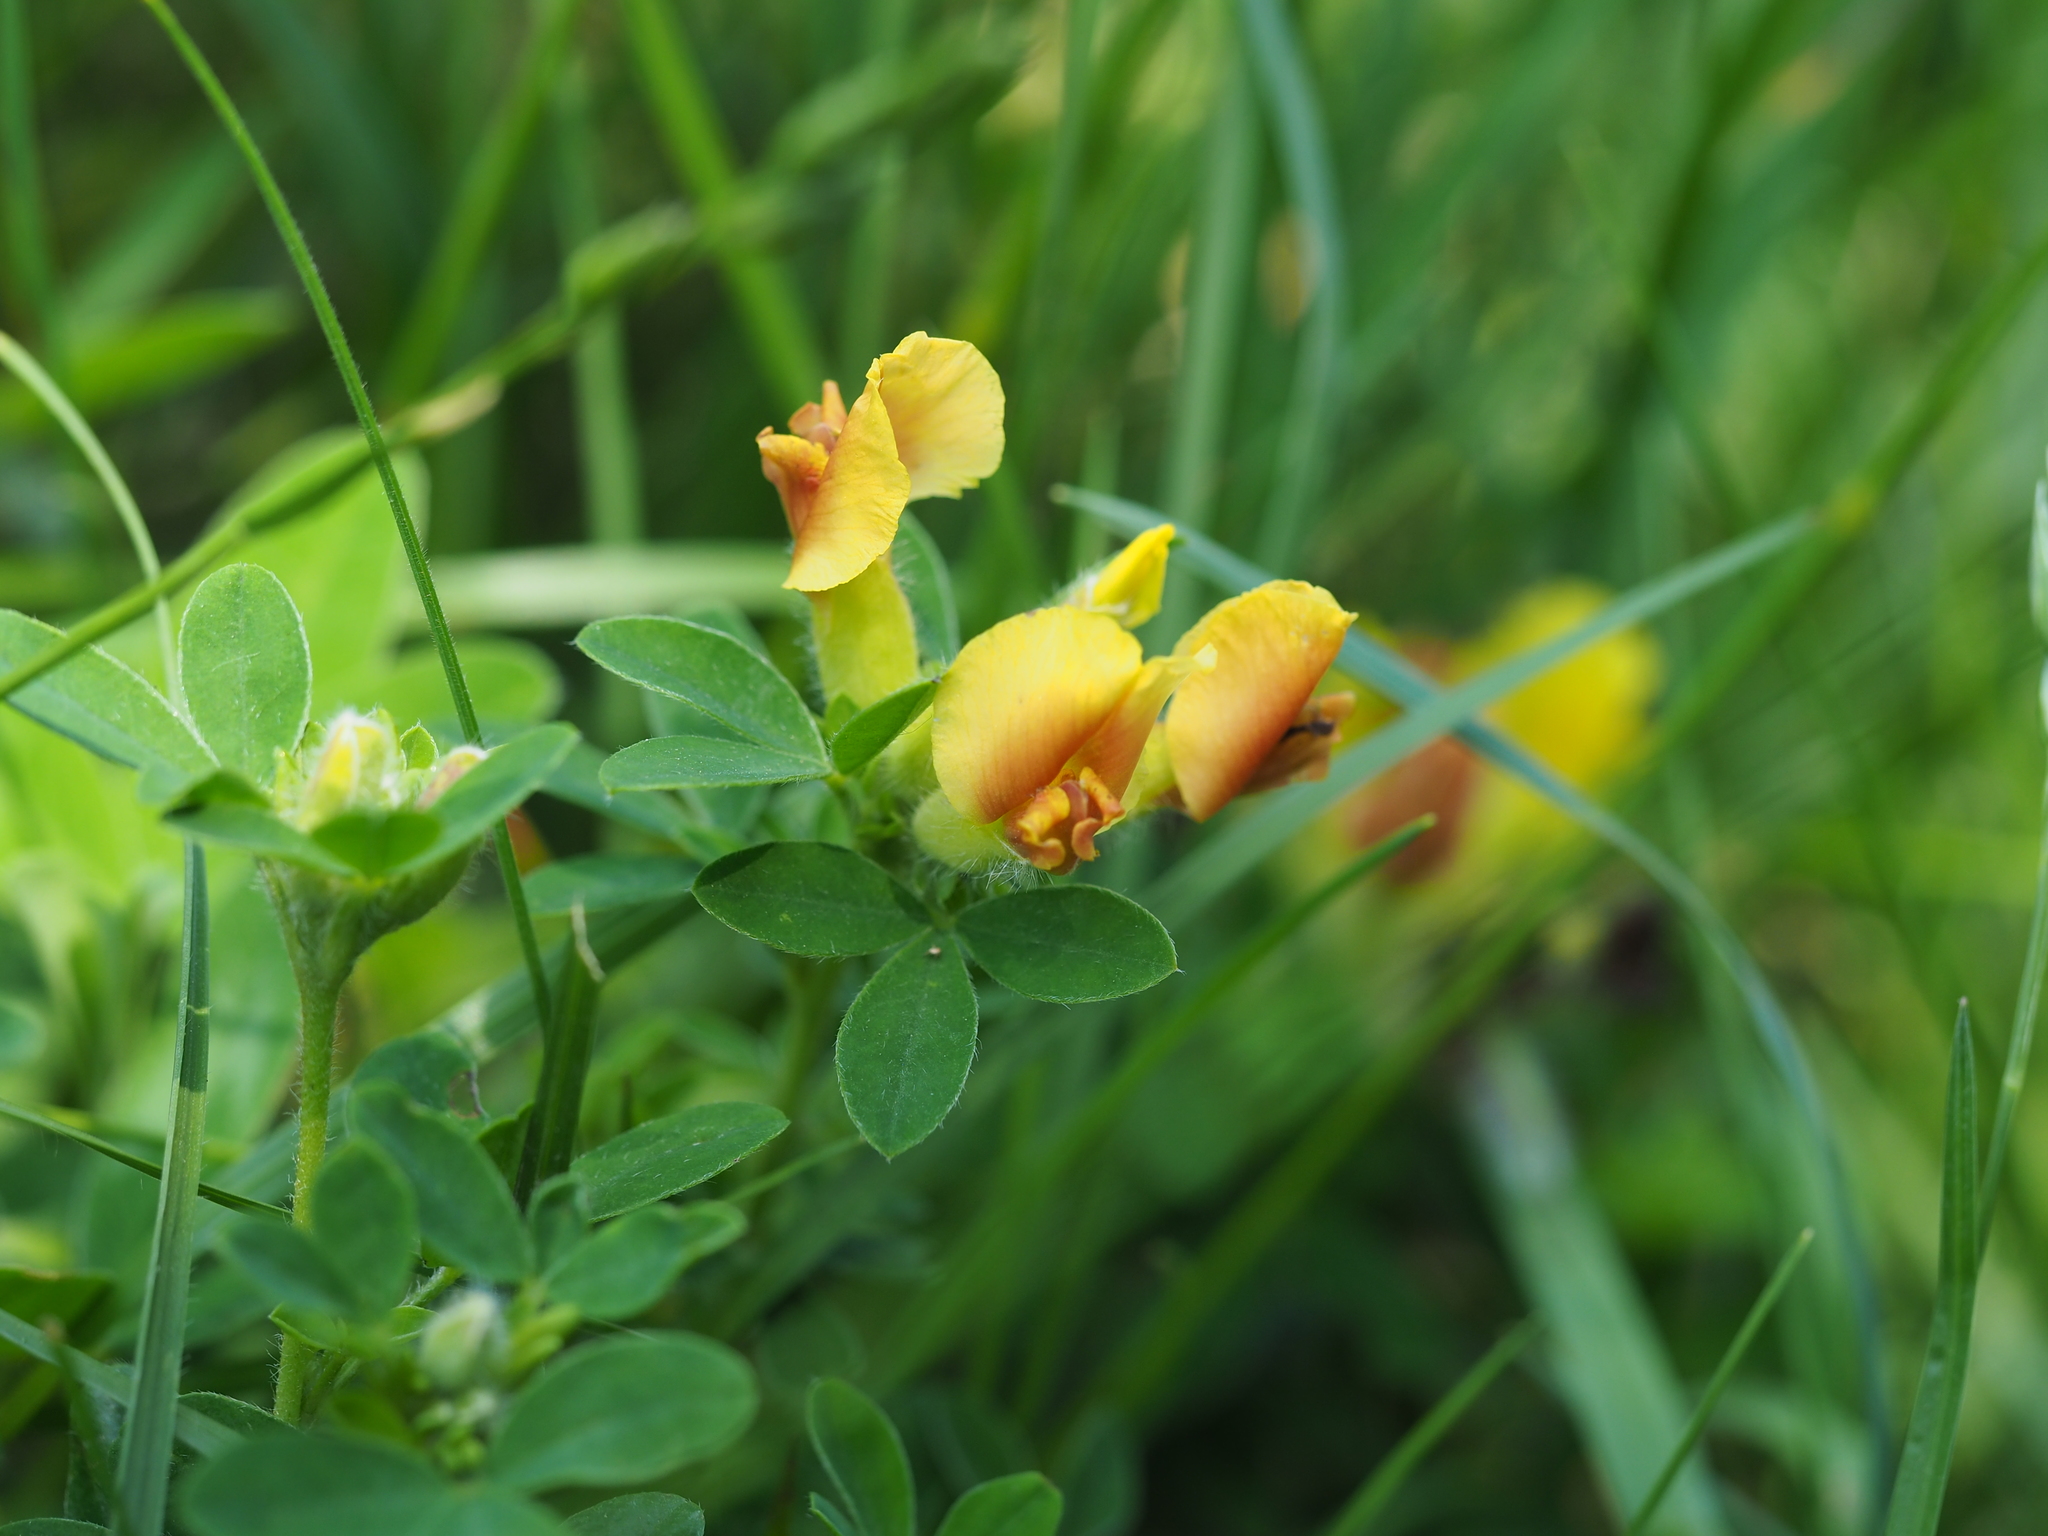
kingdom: Plantae
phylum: Tracheophyta
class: Magnoliopsida
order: Fabales
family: Fabaceae
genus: Chamaecytisus
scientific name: Chamaecytisus supinus
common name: Clustered broom
